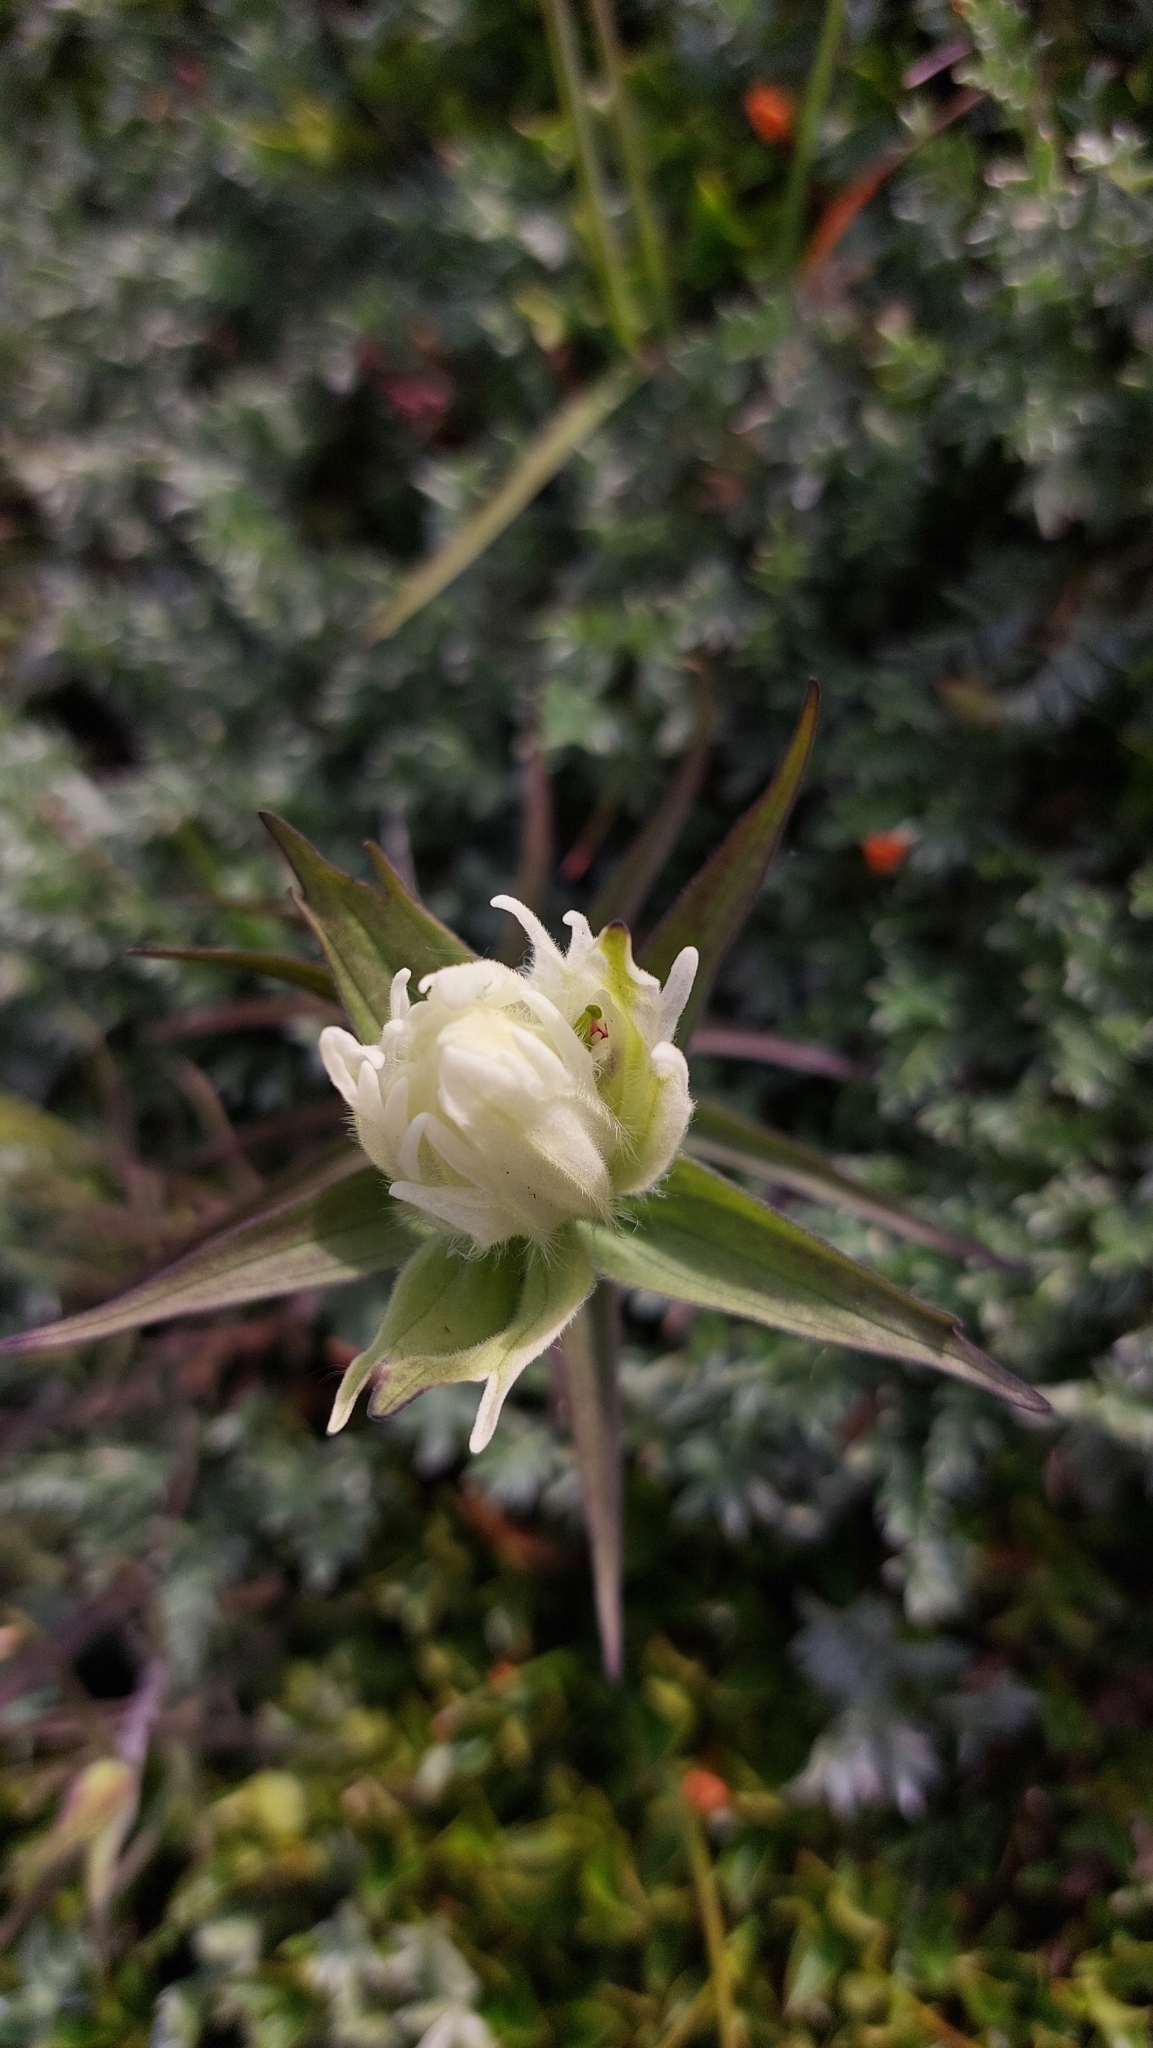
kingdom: Plantae
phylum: Tracheophyta
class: Magnoliopsida
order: Lamiales
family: Orobanchaceae
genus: Castilleja
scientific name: Castilleja pallida
